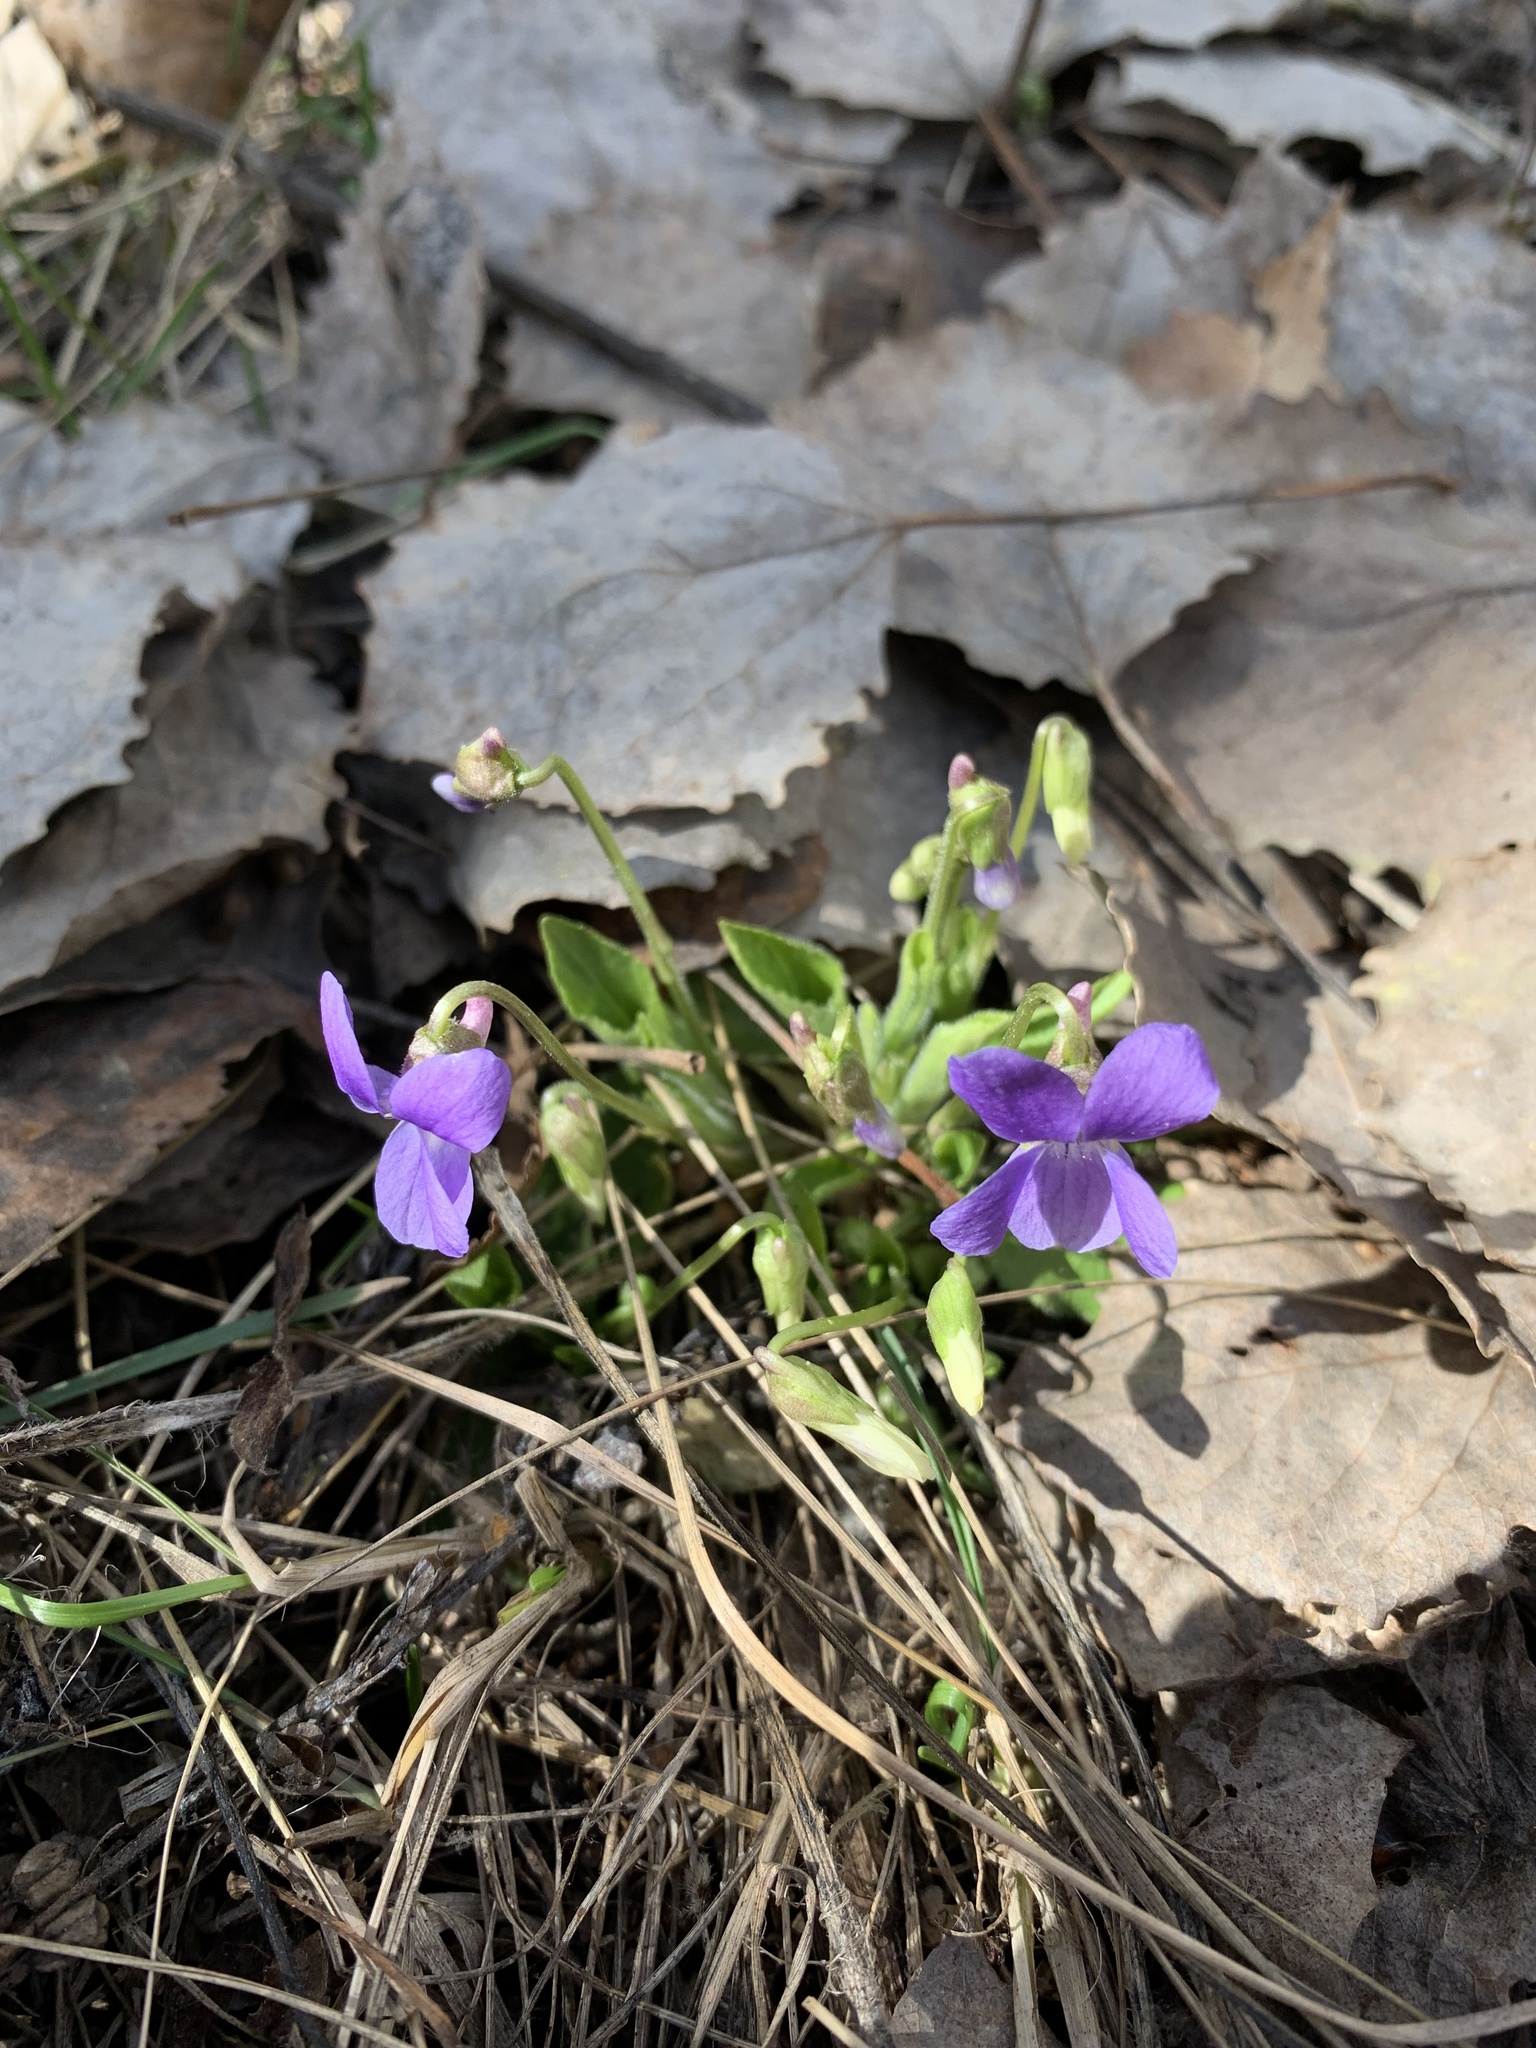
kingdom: Plantae
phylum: Tracheophyta
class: Magnoliopsida
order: Malpighiales
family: Violaceae
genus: Viola
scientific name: Viola hirta
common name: Hairy violet
